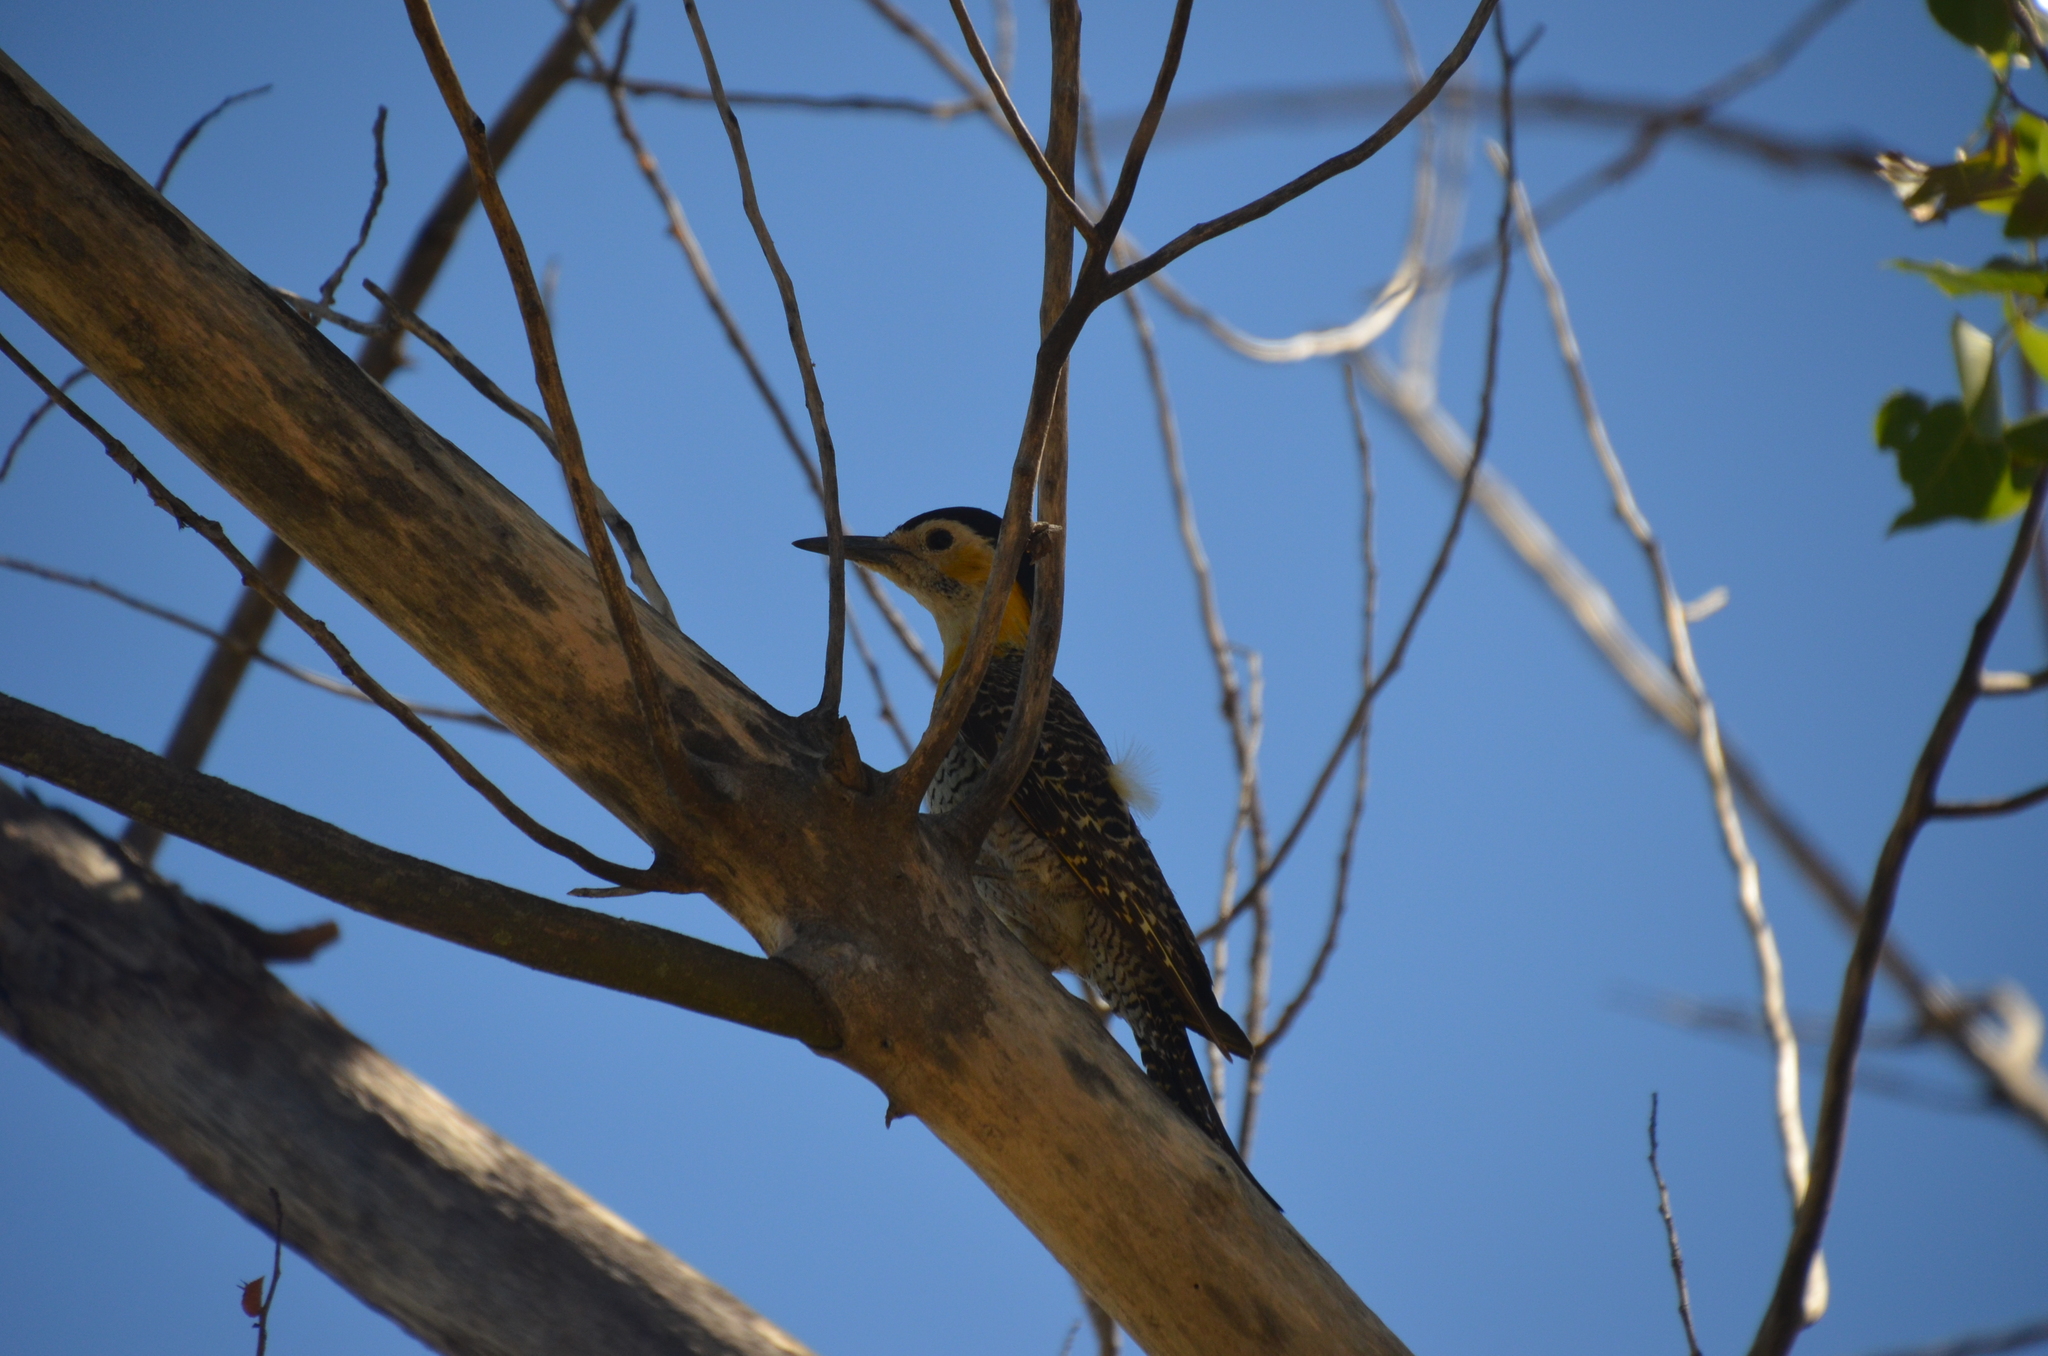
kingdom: Animalia
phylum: Chordata
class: Aves
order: Piciformes
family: Picidae
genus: Colaptes
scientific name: Colaptes campestris
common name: Campo flicker
